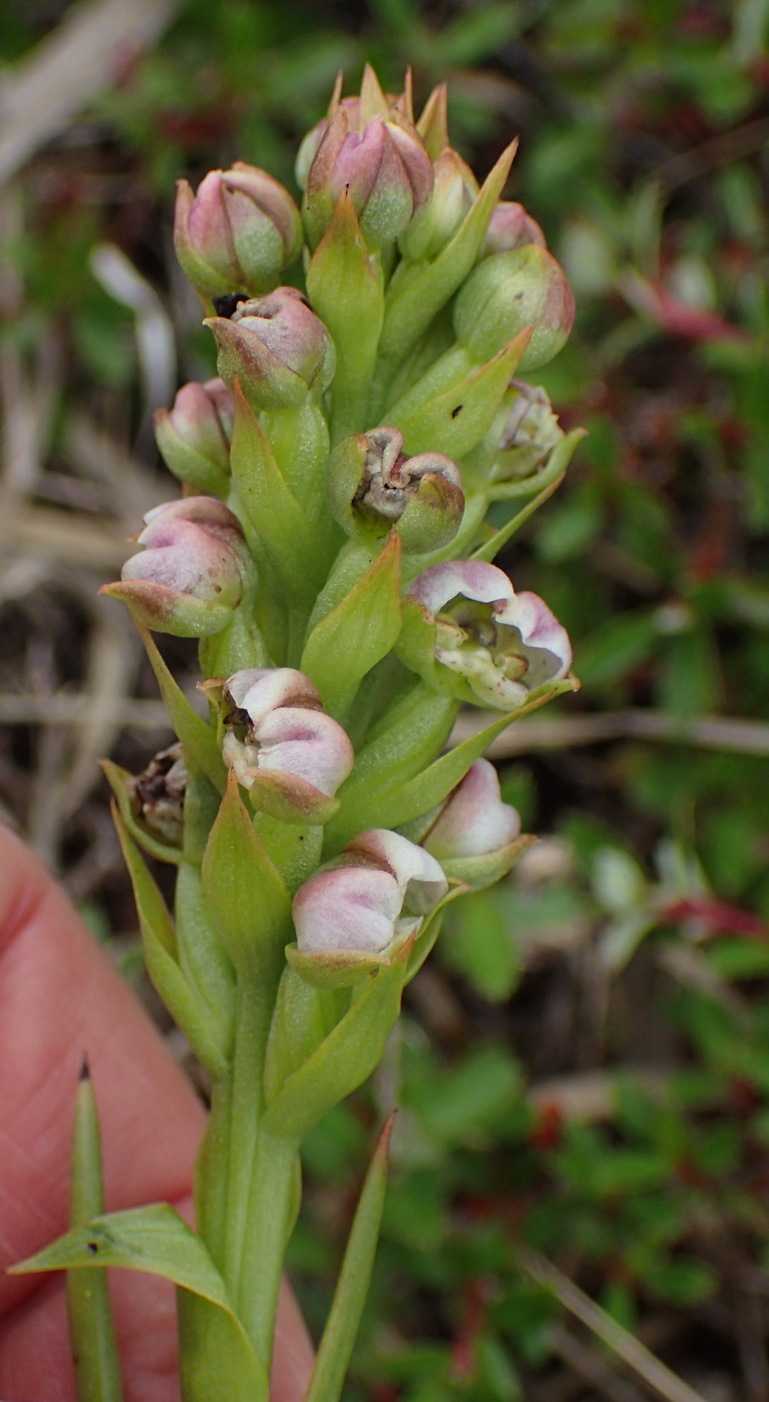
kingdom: Plantae
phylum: Tracheophyta
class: Liliopsida
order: Asparagales
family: Orchidaceae
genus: Evotella
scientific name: Evotella carnosa
